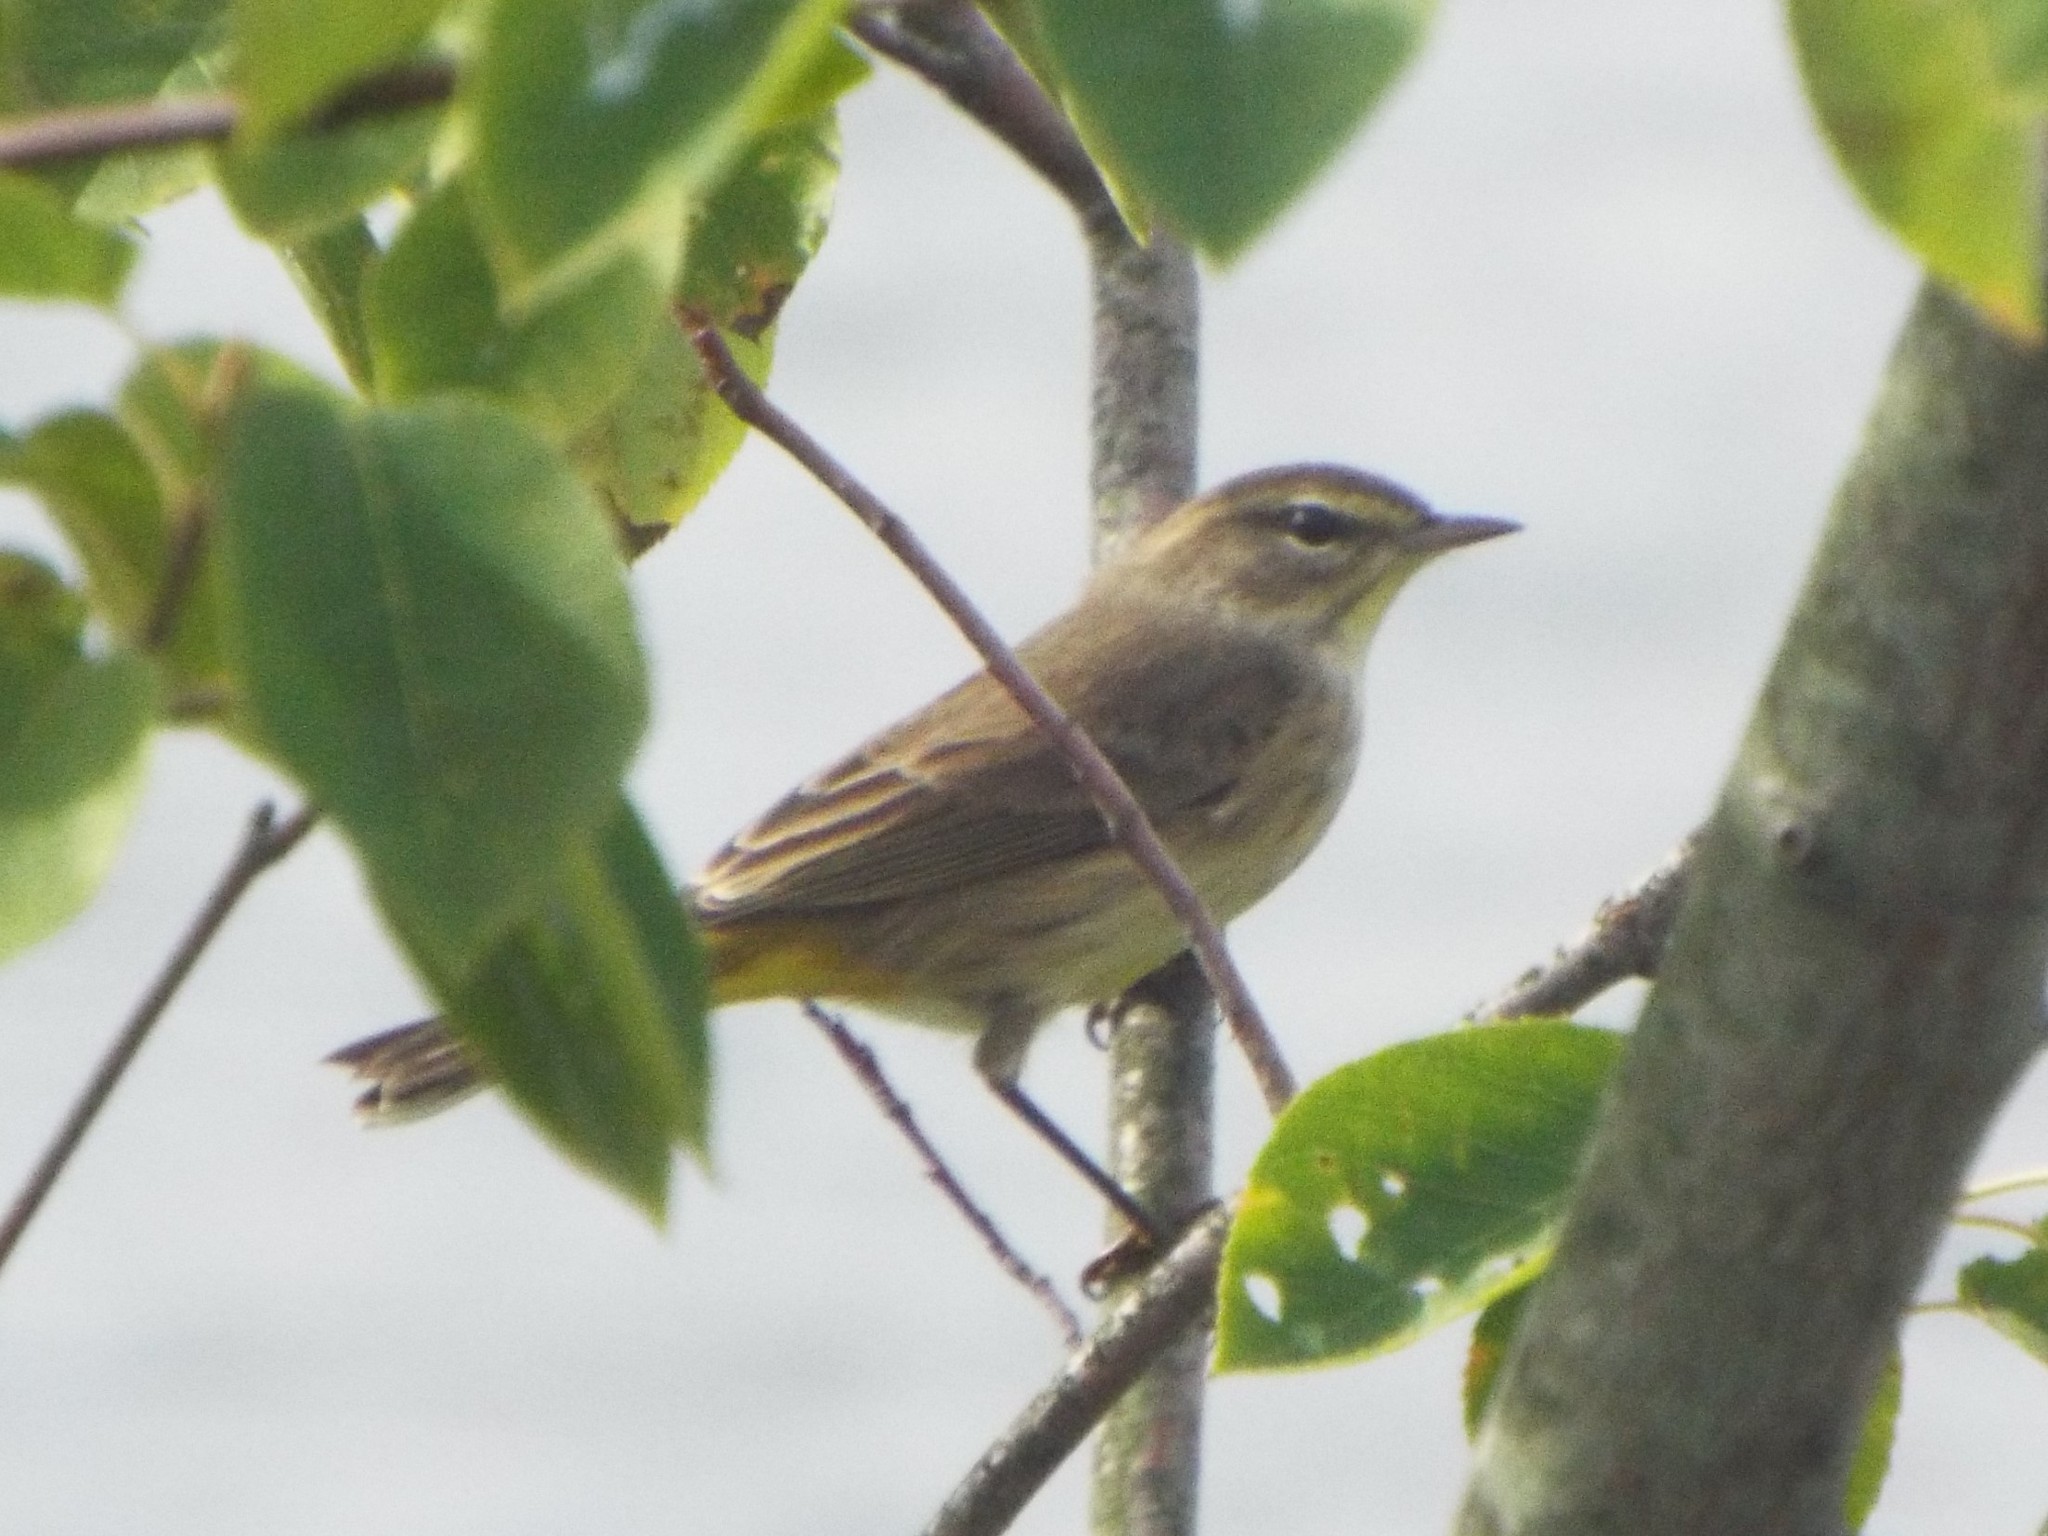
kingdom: Animalia
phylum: Chordata
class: Aves
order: Passeriformes
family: Parulidae
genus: Setophaga
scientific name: Setophaga palmarum
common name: Palm warbler
